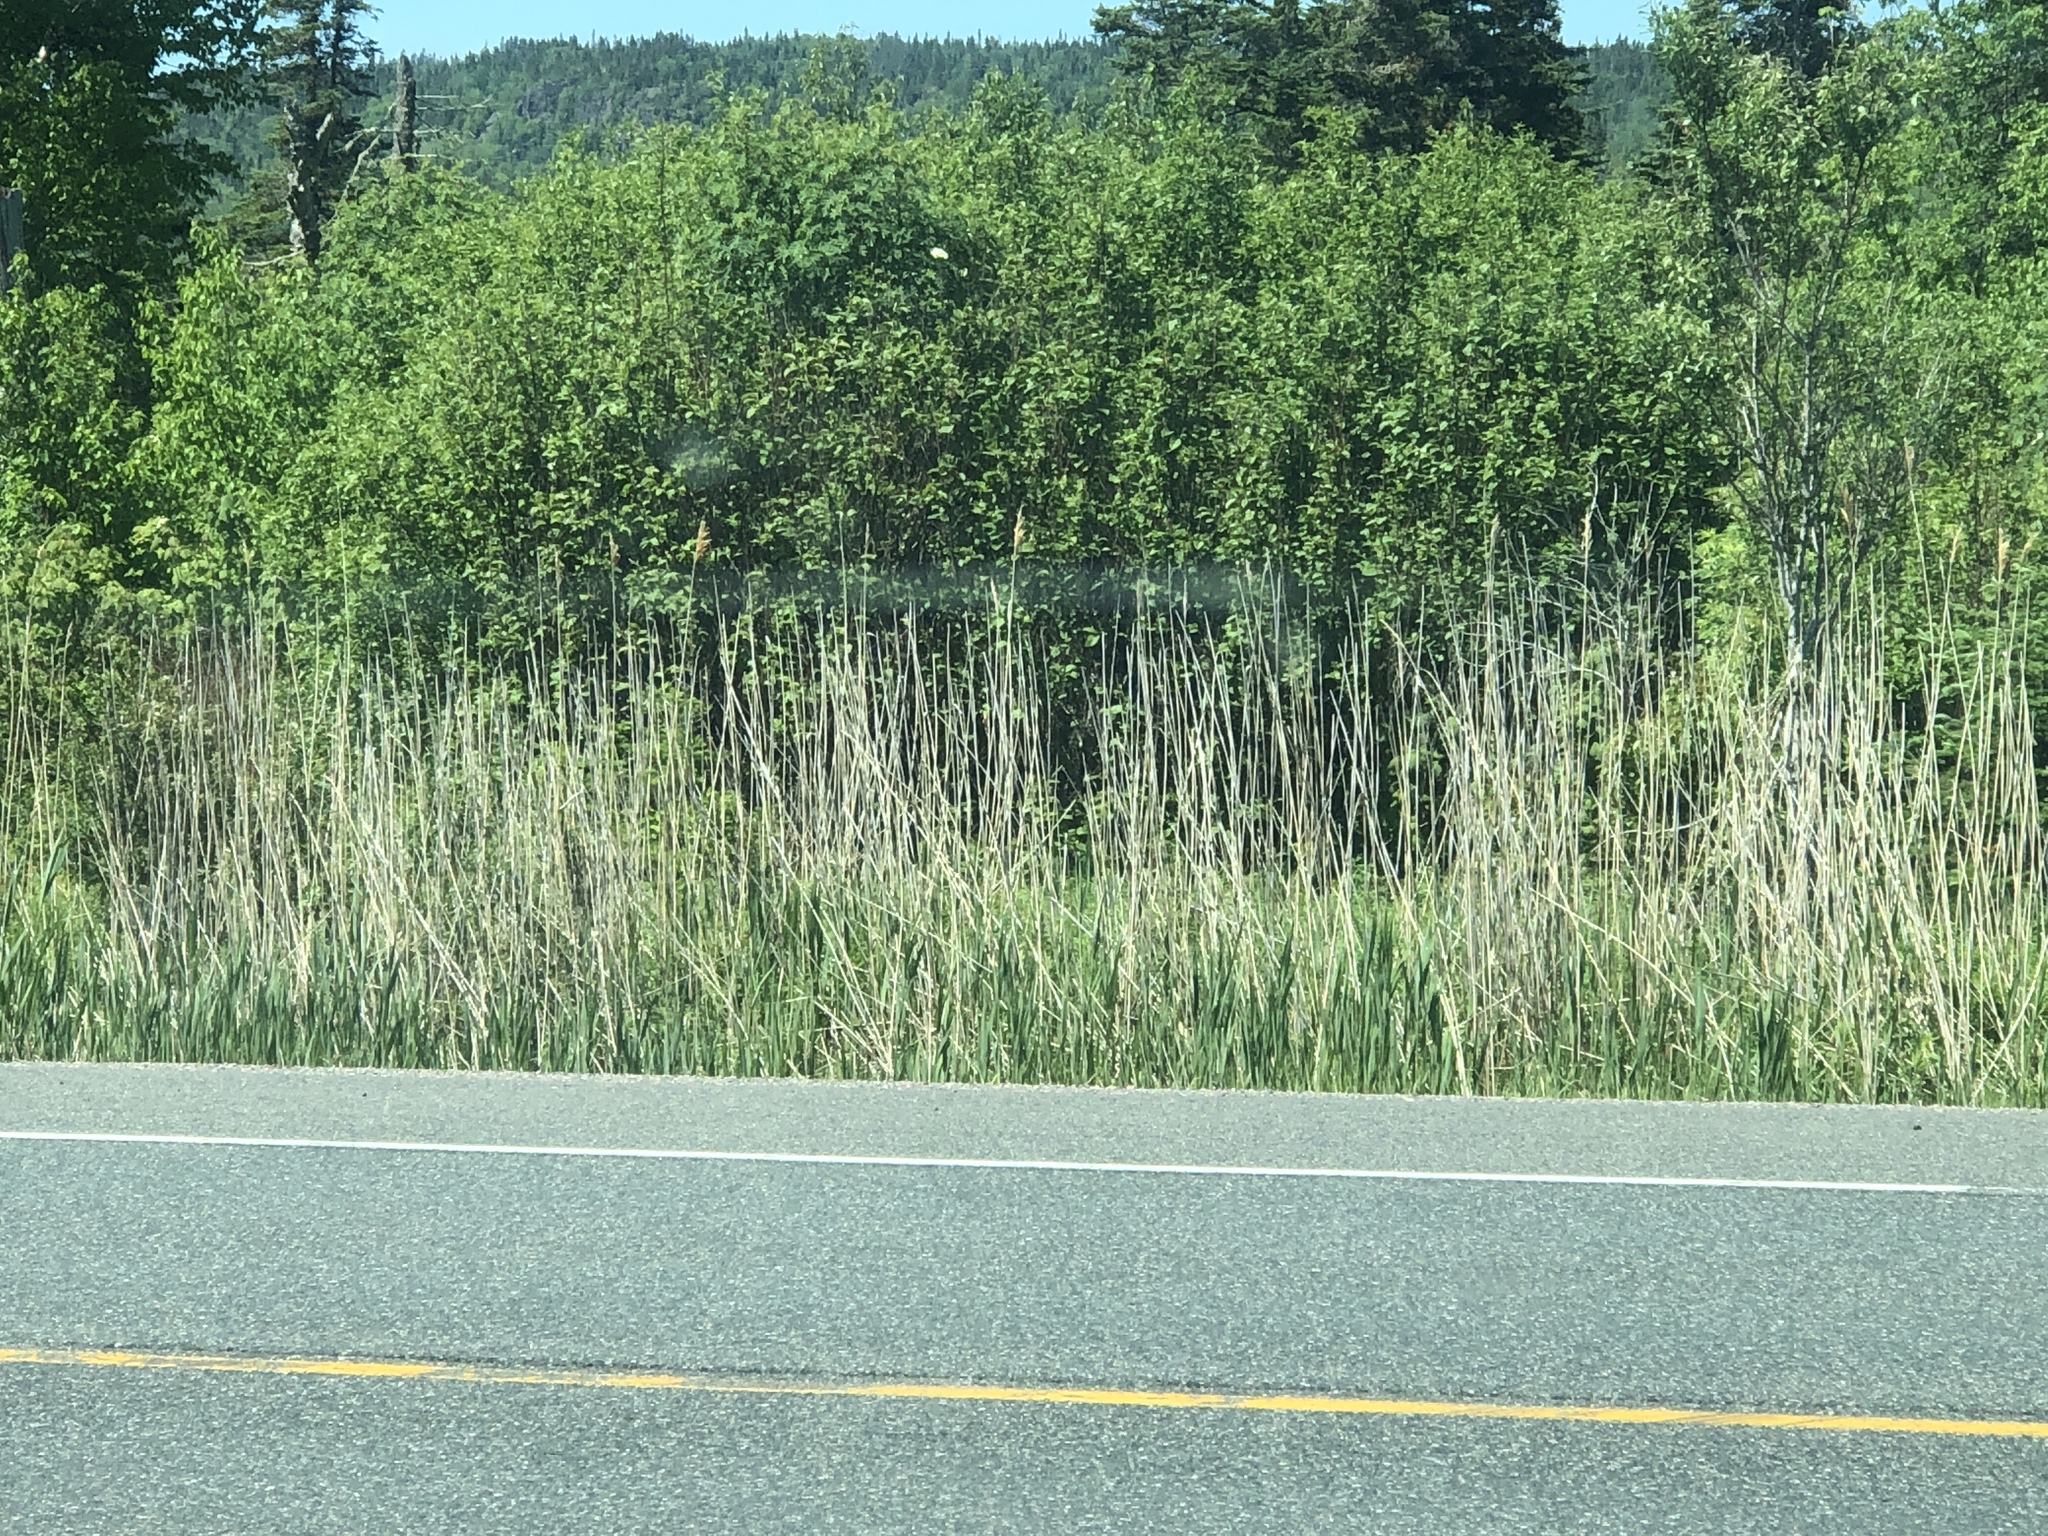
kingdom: Plantae
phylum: Tracheophyta
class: Liliopsida
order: Poales
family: Poaceae
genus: Phragmites
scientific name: Phragmites australis
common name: Common reed
